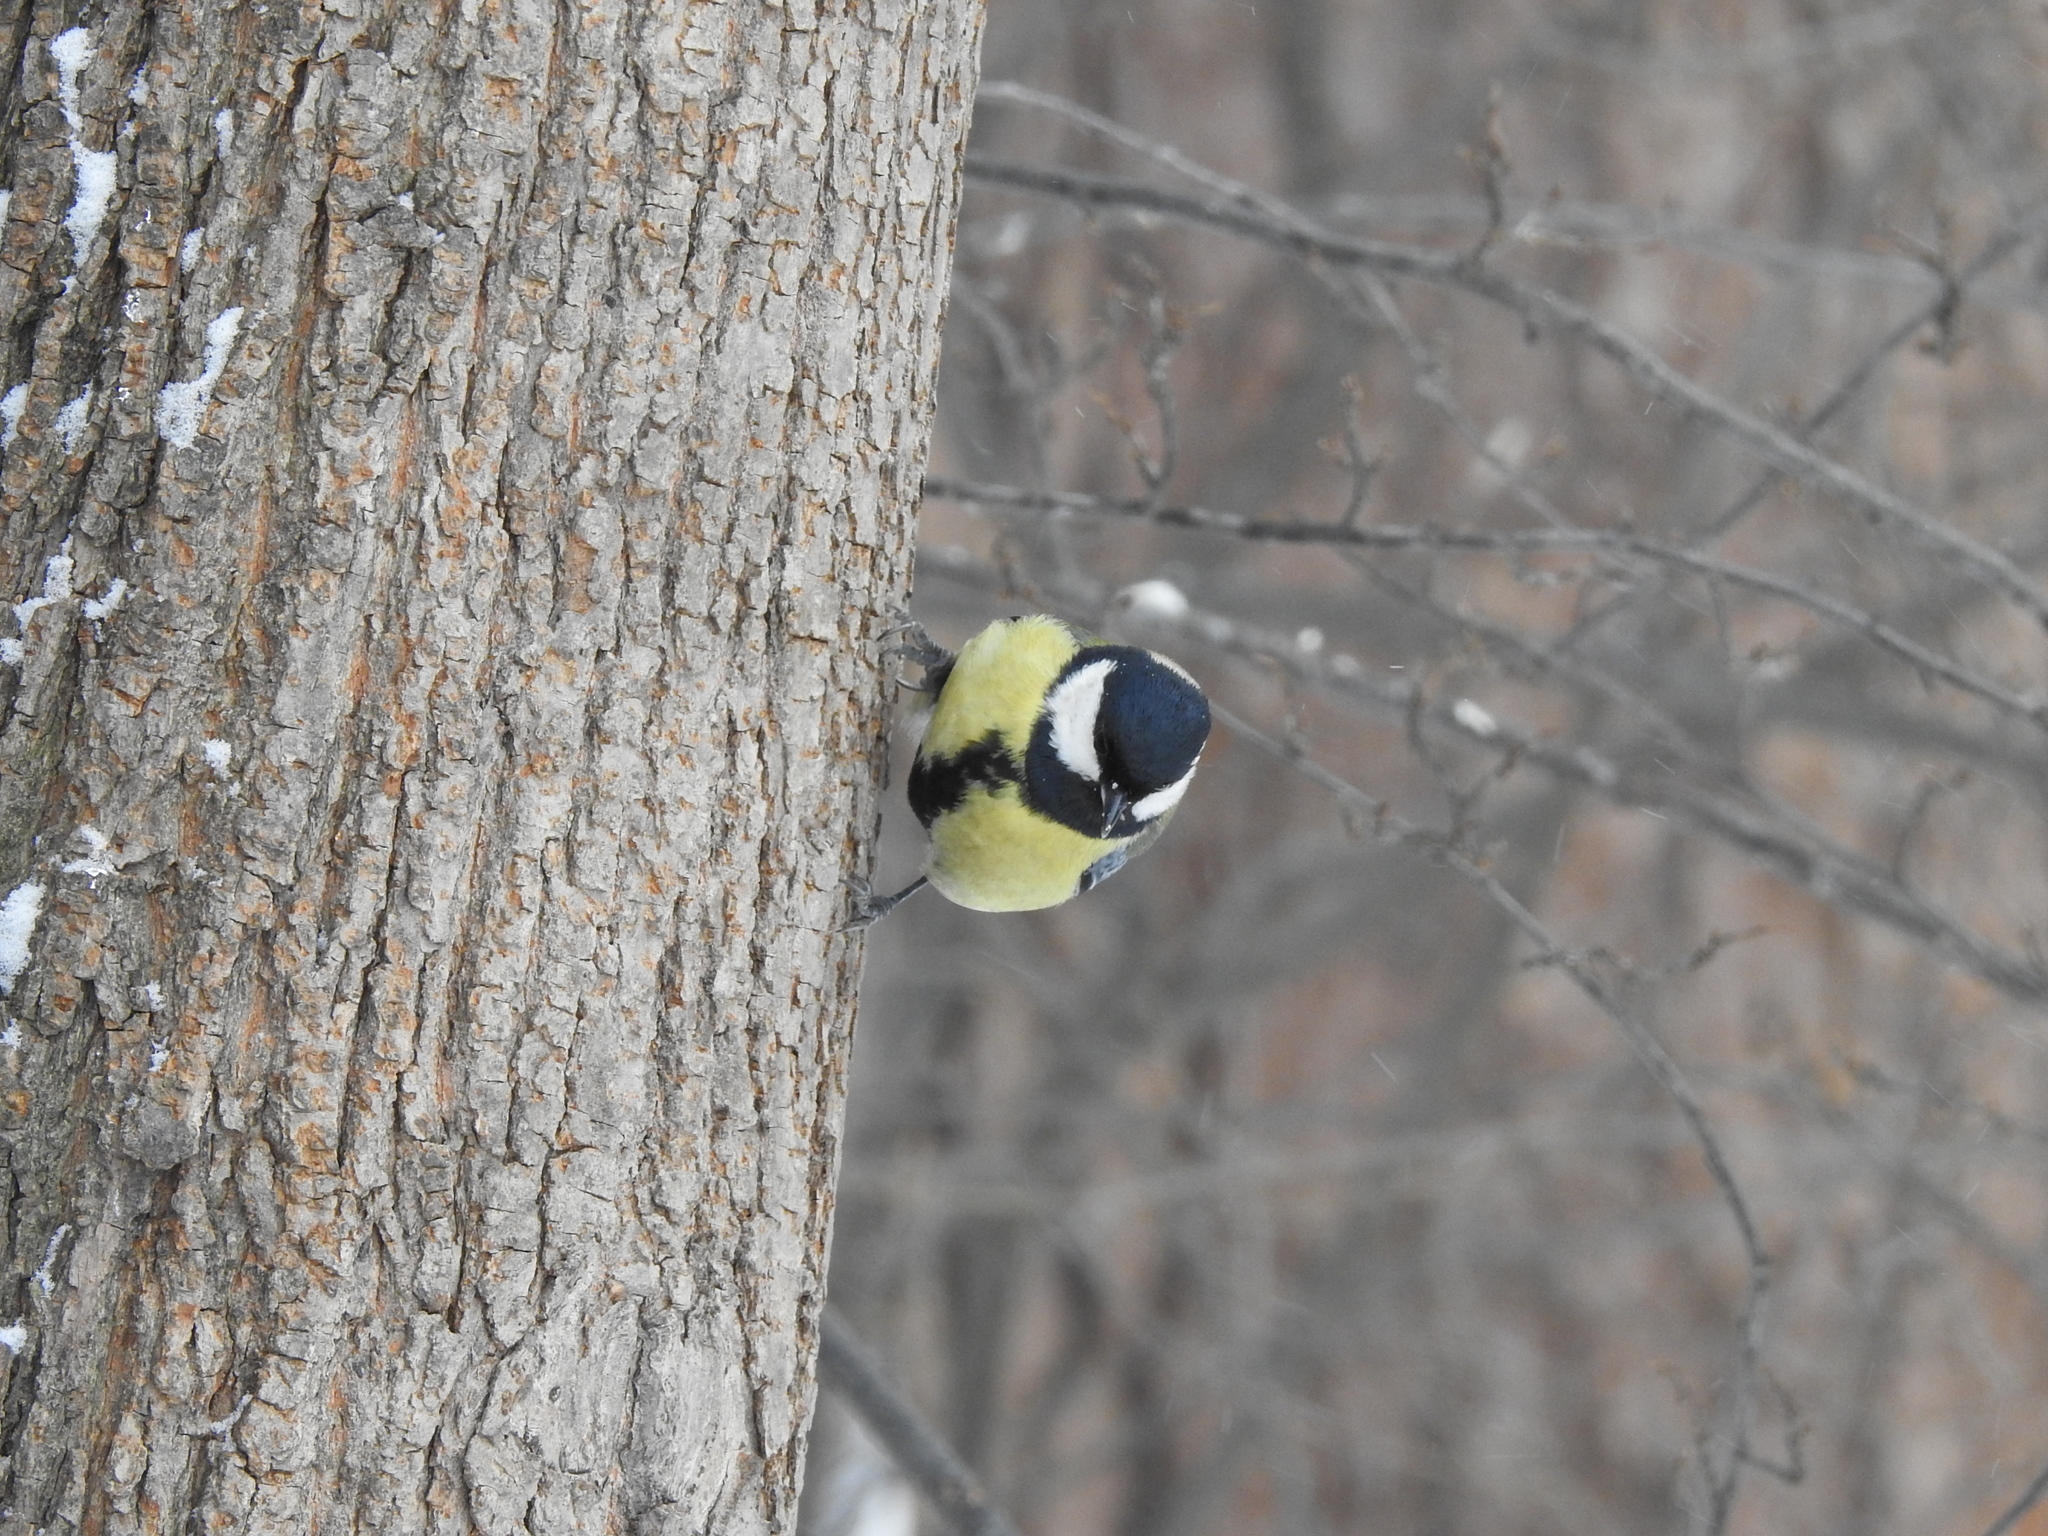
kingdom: Animalia
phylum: Chordata
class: Aves
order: Passeriformes
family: Paridae
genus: Parus
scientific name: Parus major
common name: Great tit
